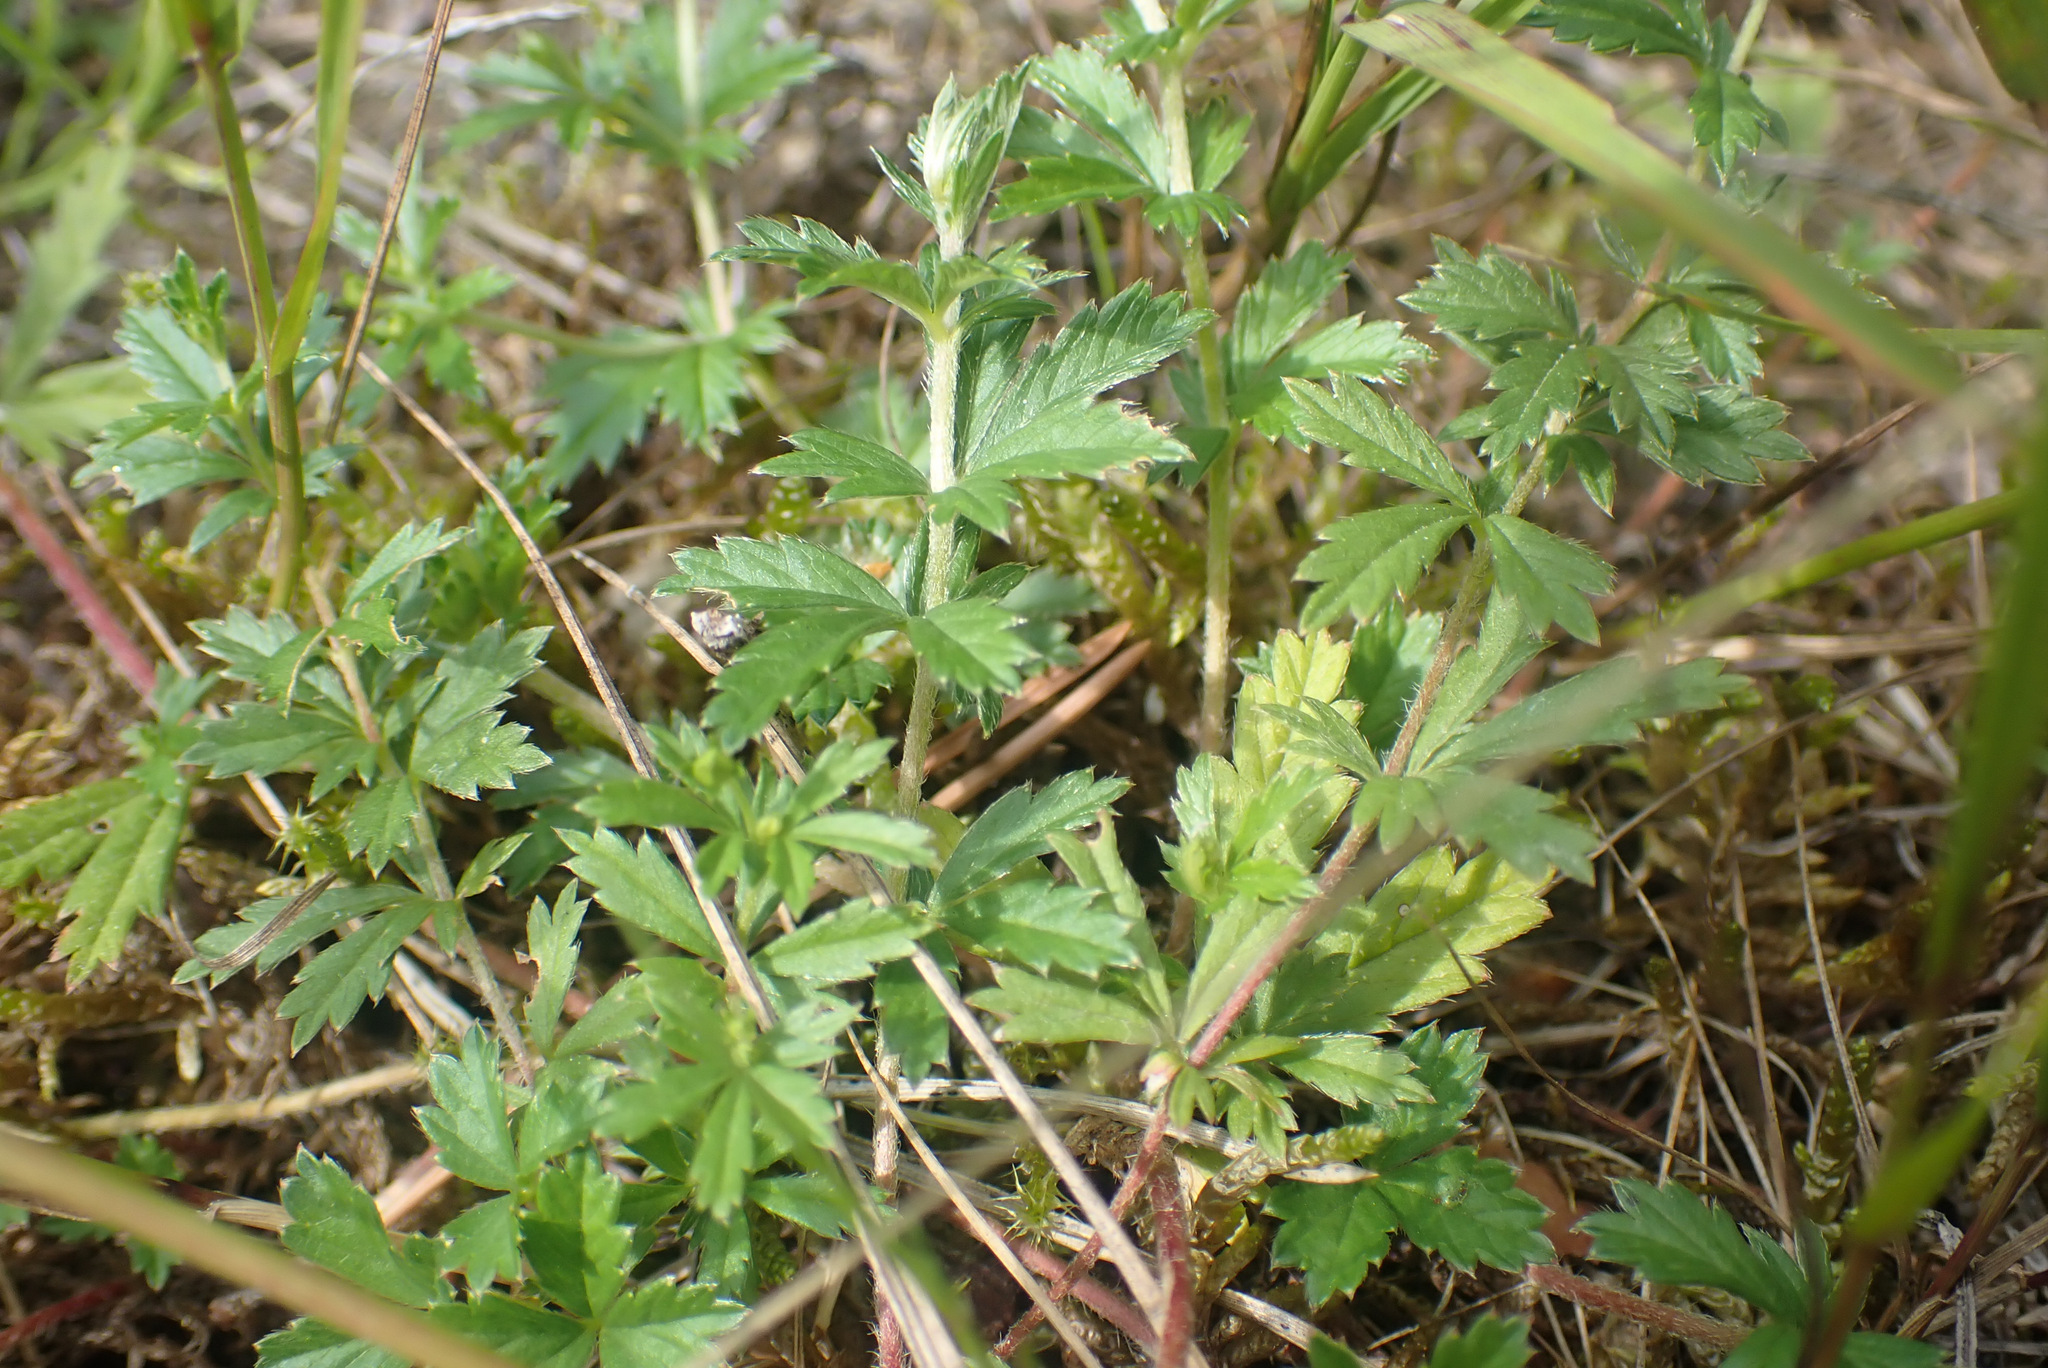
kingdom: Plantae
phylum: Tracheophyta
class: Magnoliopsida
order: Rosales
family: Rosaceae
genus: Potentilla
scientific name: Potentilla erecta
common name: Tormentil
